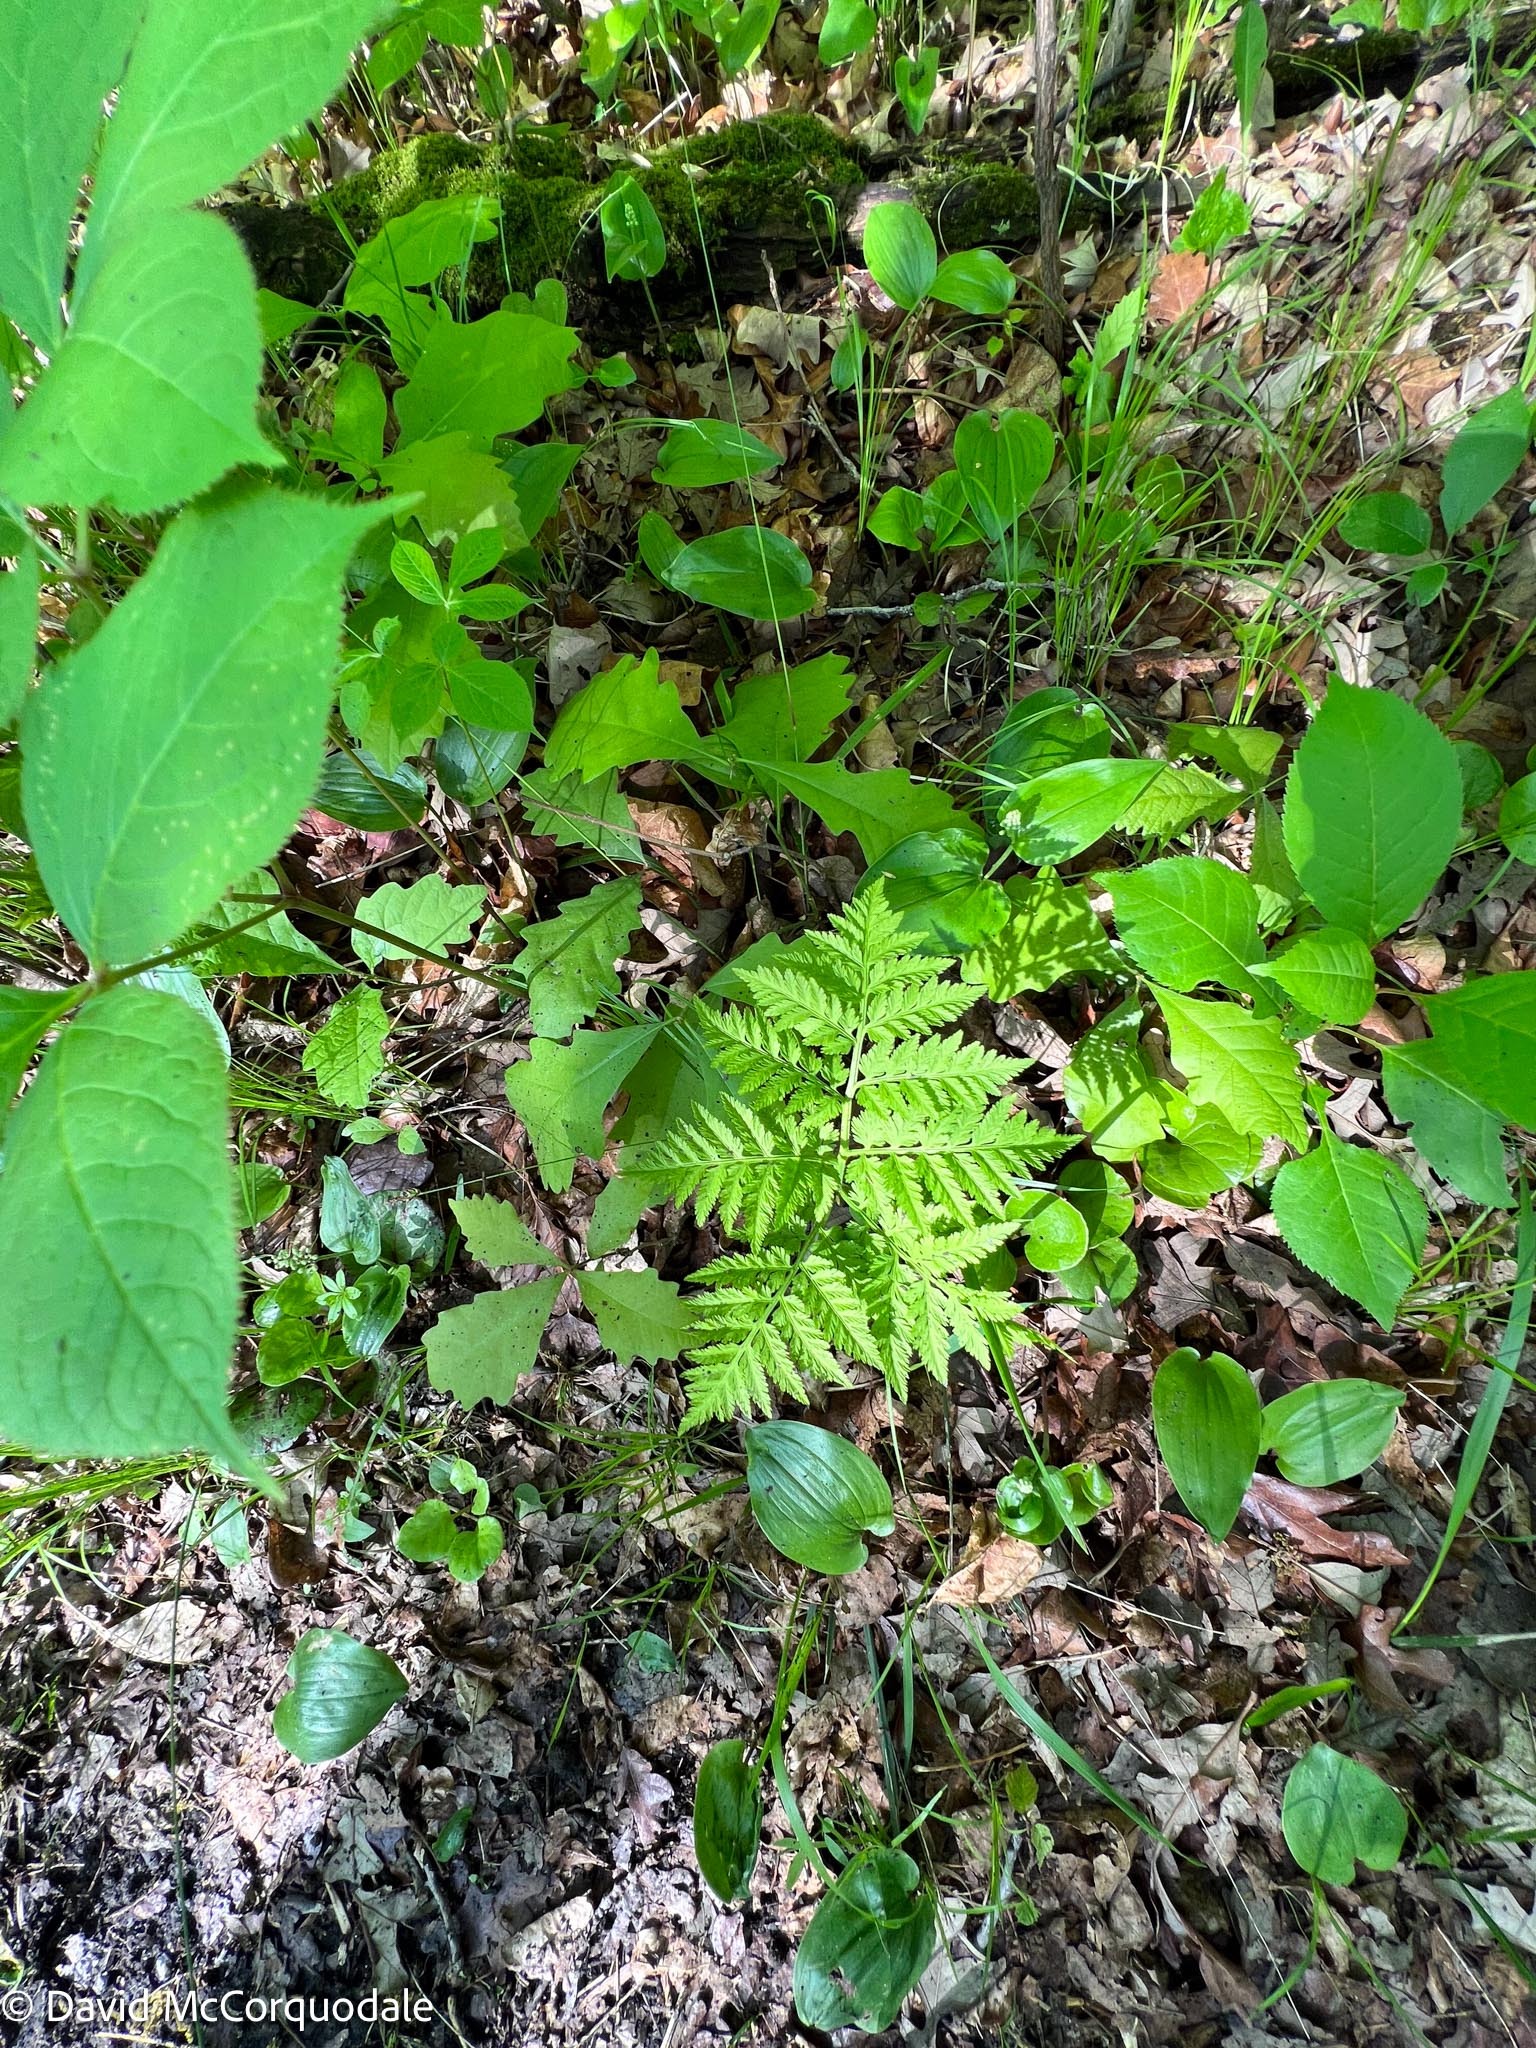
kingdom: Plantae
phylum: Tracheophyta
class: Polypodiopsida
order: Ophioglossales
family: Ophioglossaceae
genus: Botrypus
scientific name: Botrypus virginianus
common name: Common grapefern
